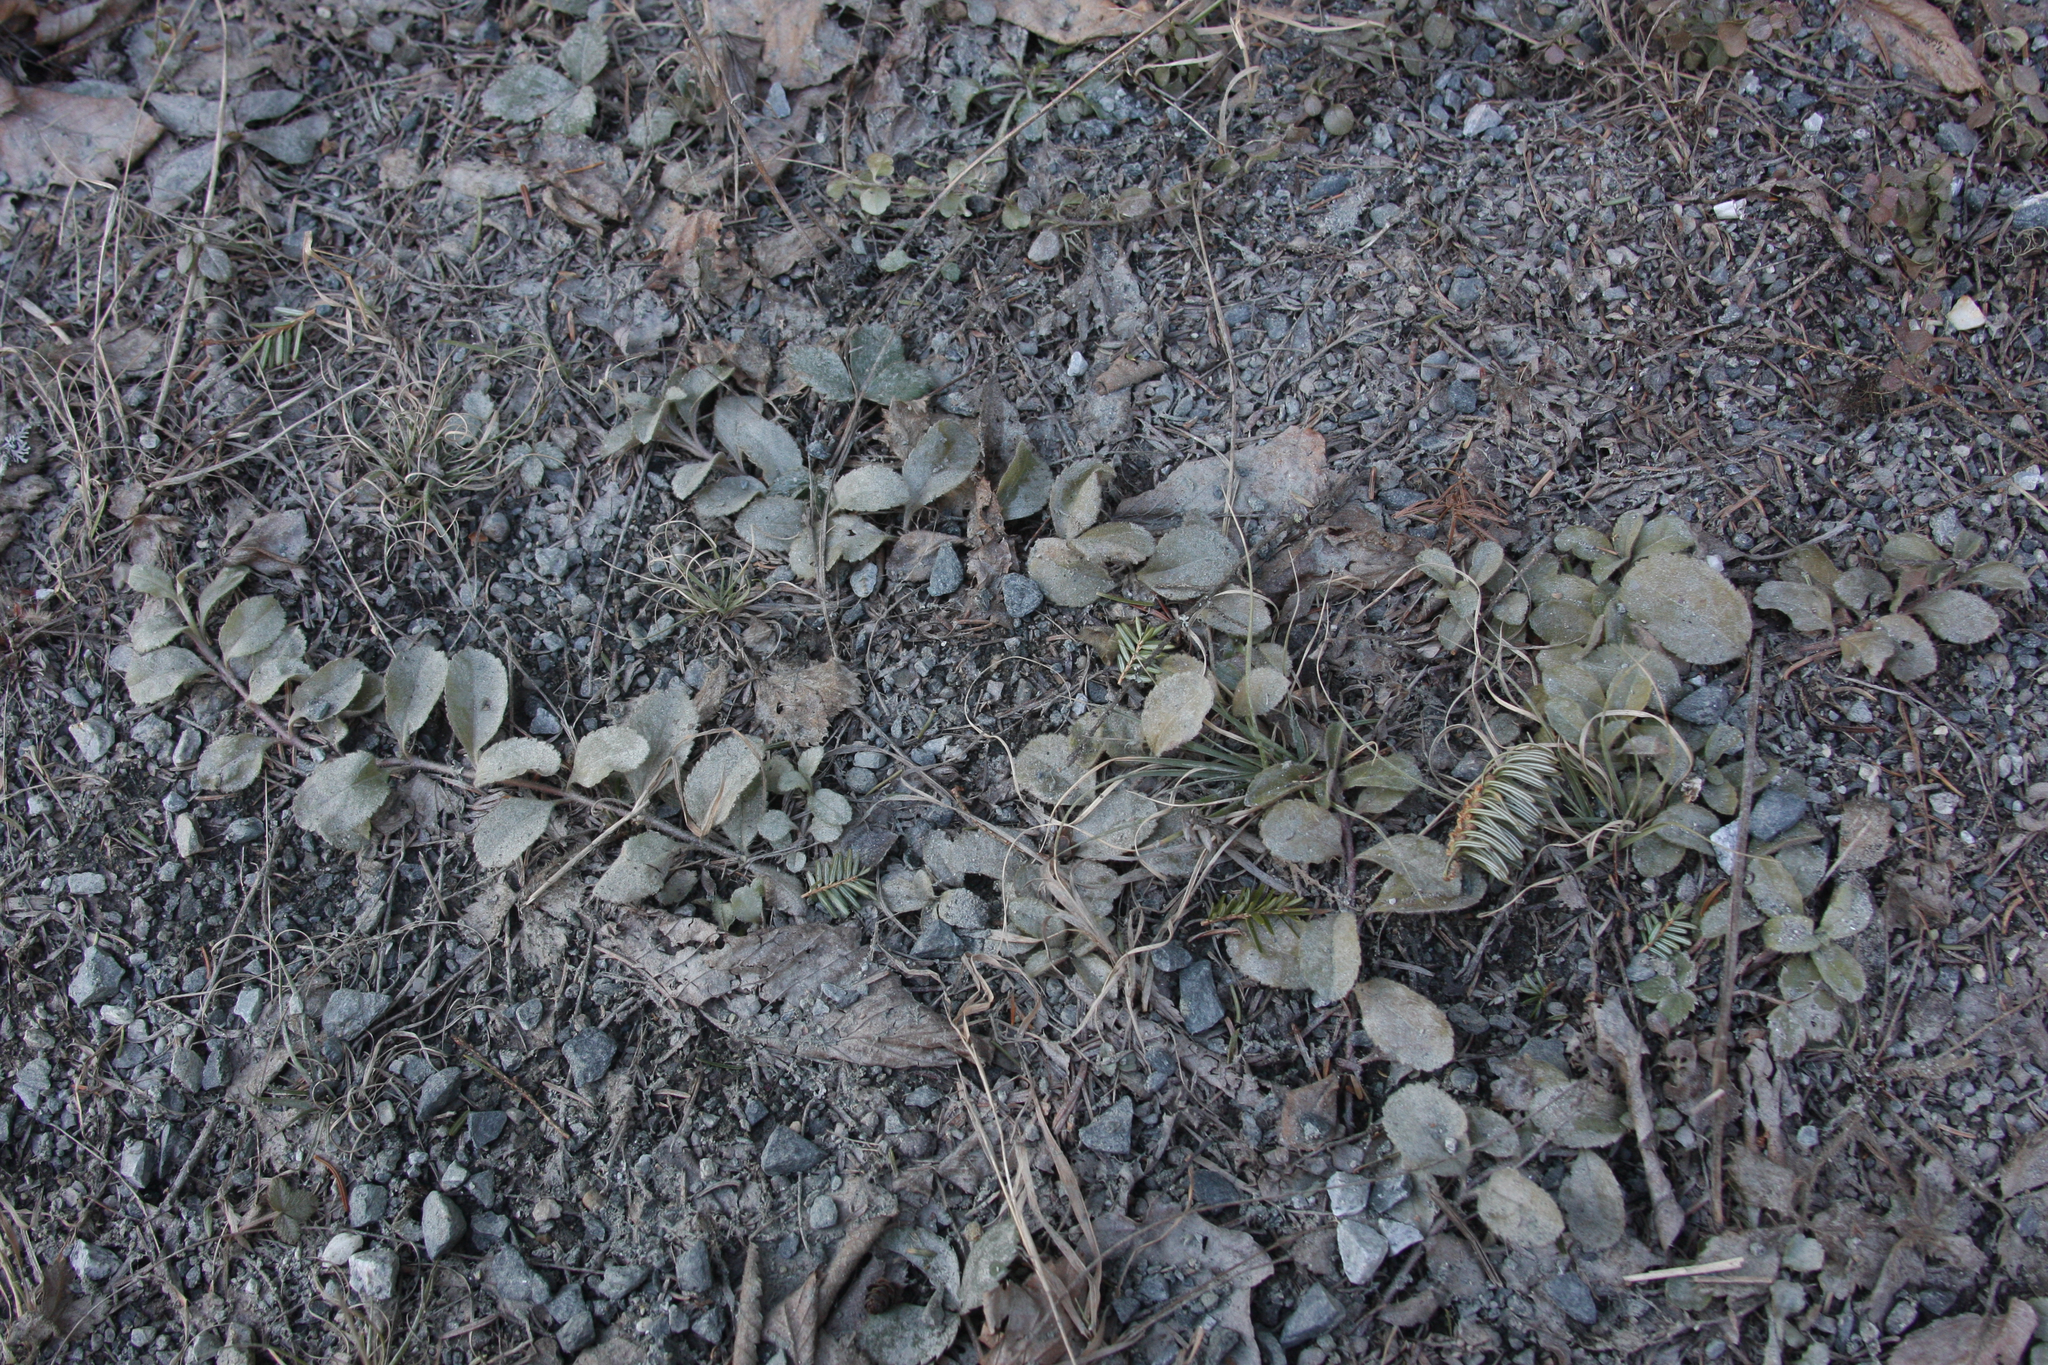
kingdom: Plantae
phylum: Tracheophyta
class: Magnoliopsida
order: Lamiales
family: Plantaginaceae
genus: Veronica
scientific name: Veronica officinalis
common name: Common speedwell
